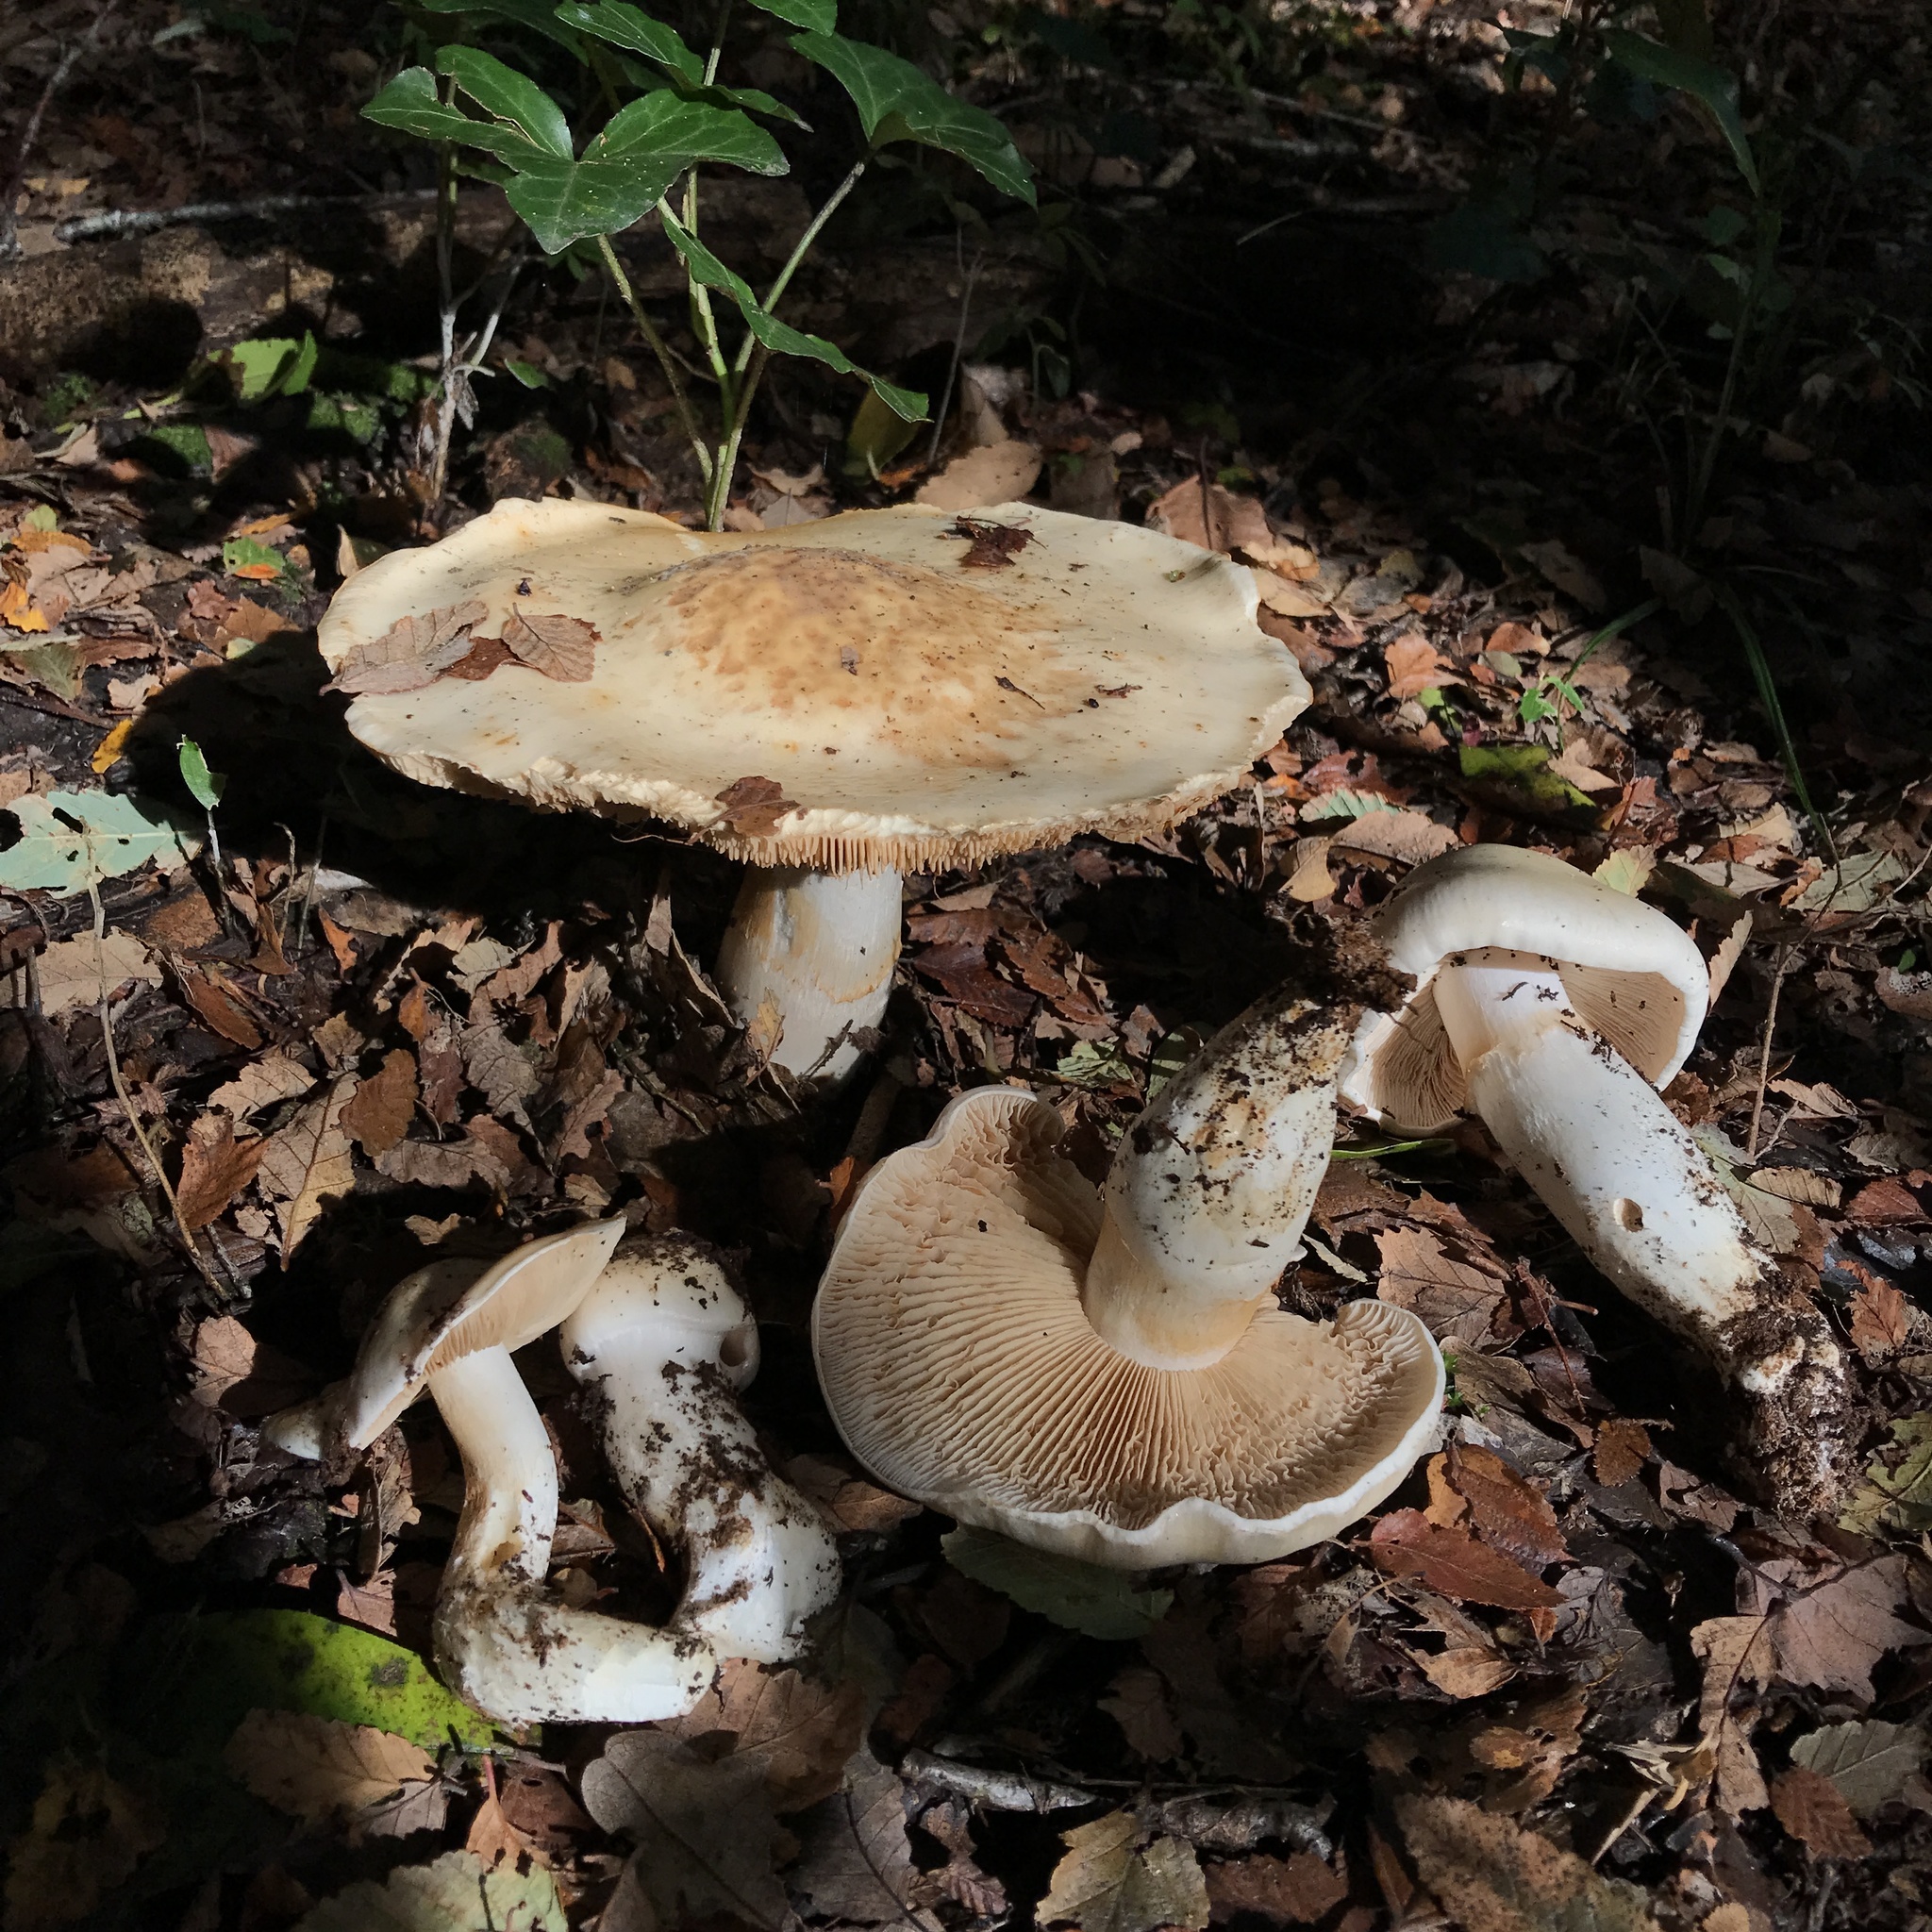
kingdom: Fungi
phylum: Basidiomycota
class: Agaricomycetes
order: Agaricales
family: Cortinariaceae
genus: Thaxterogaster
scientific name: Thaxterogaster effundens
